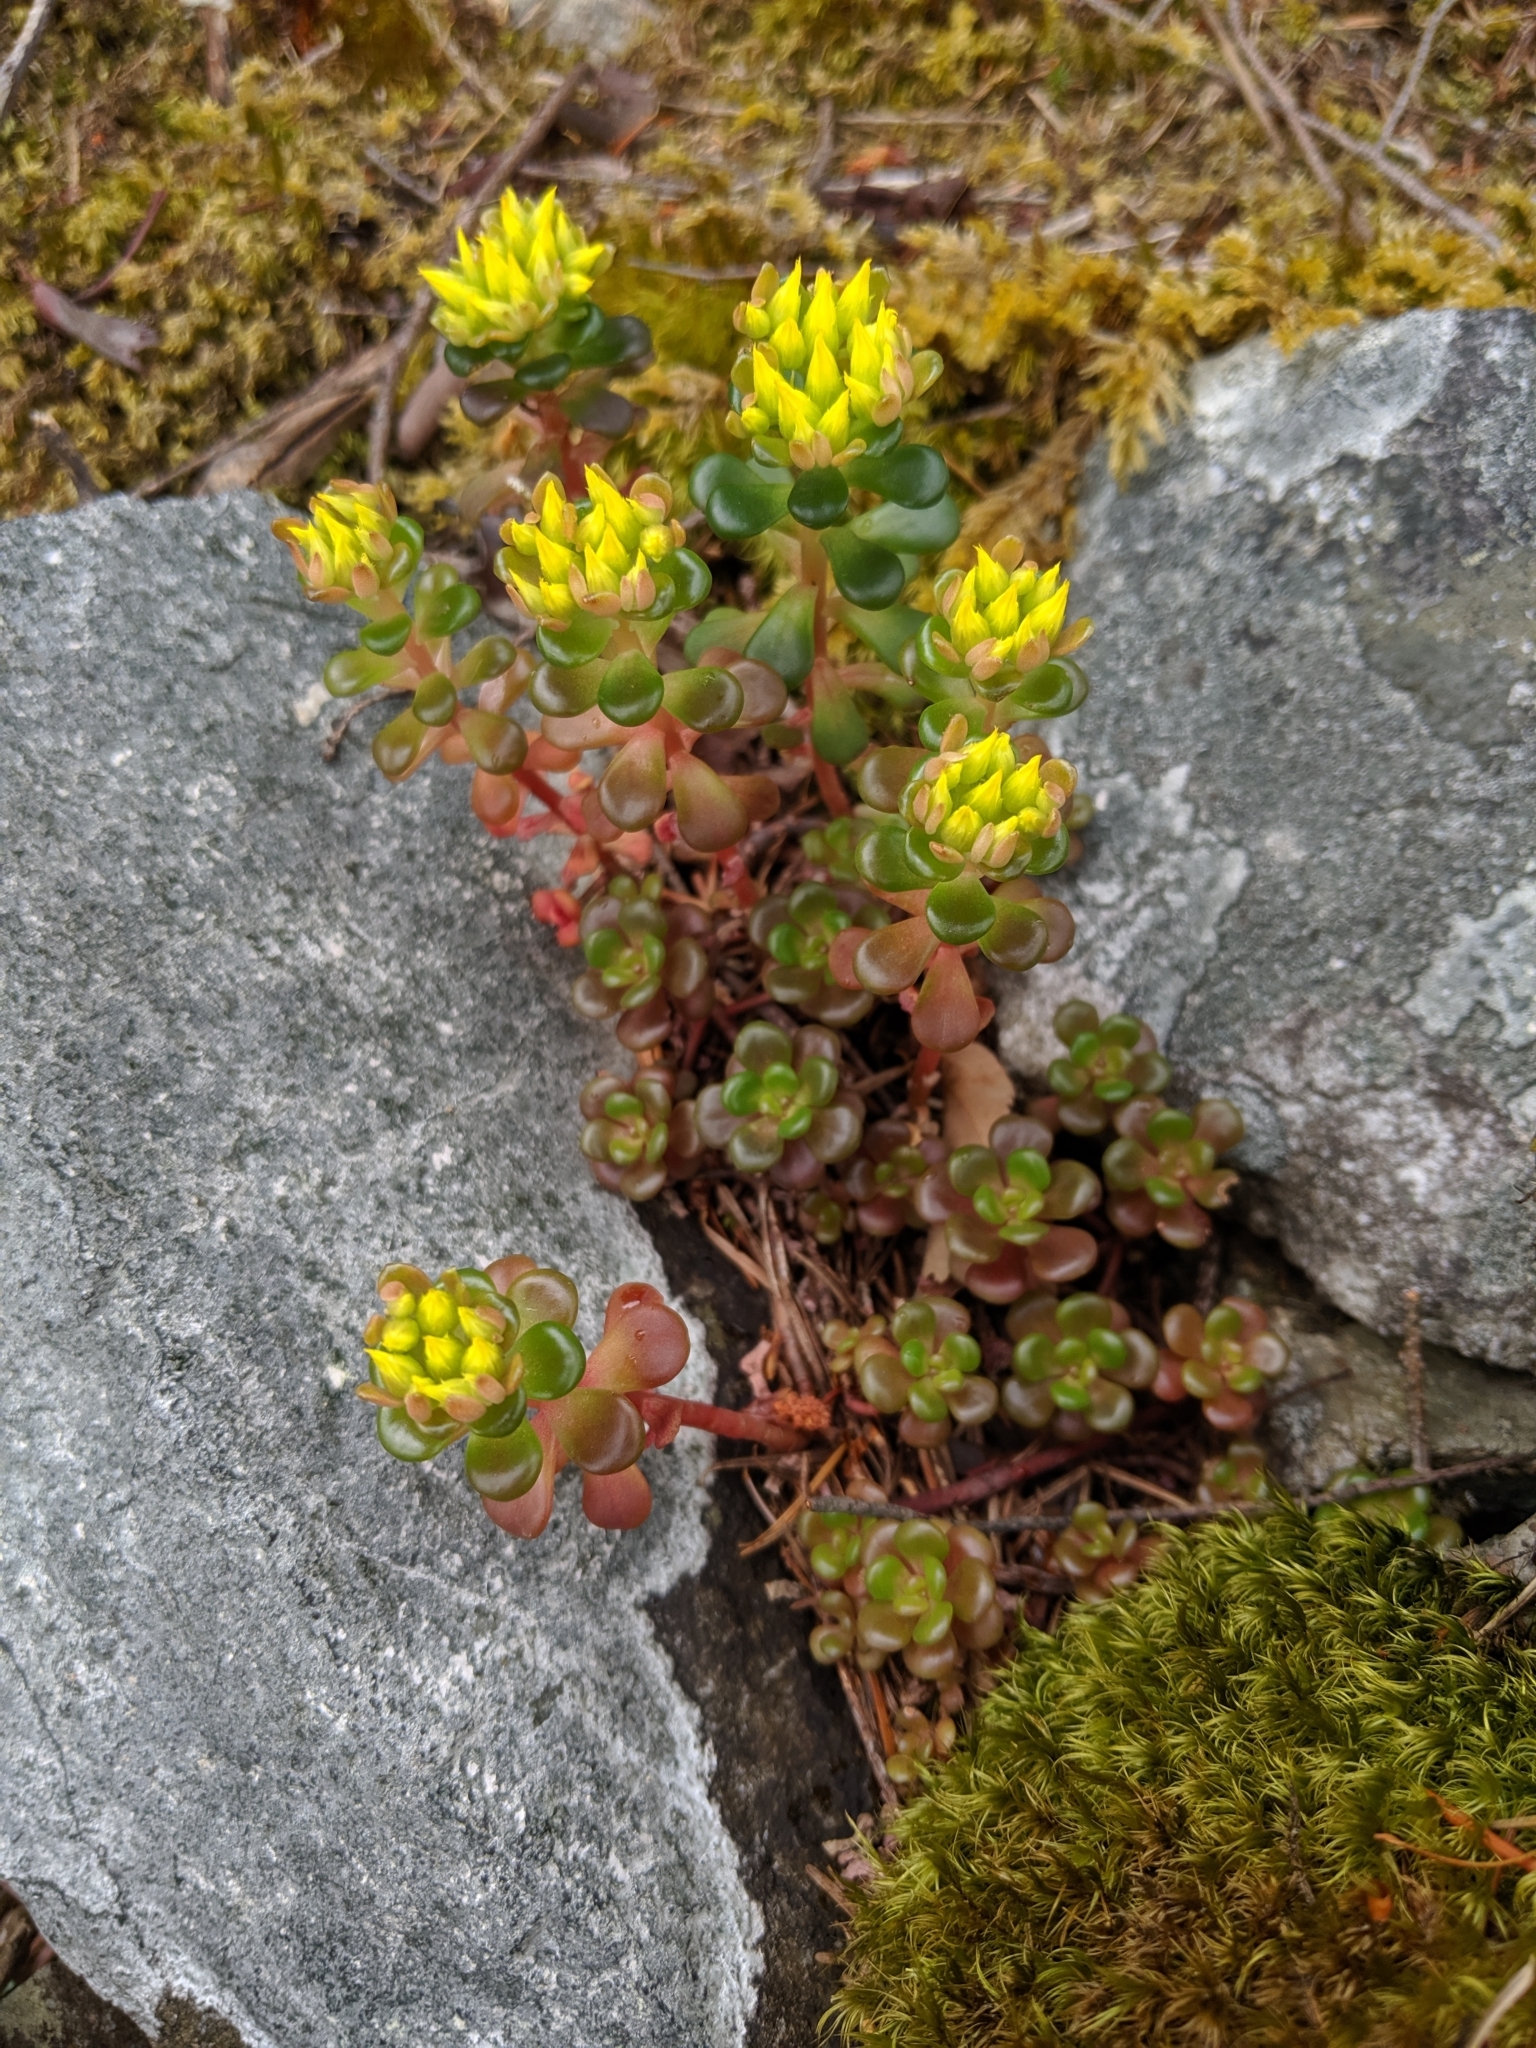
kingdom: Plantae
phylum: Tracheophyta
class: Magnoliopsida
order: Saxifragales
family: Crassulaceae
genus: Sedum
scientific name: Sedum oreganum
